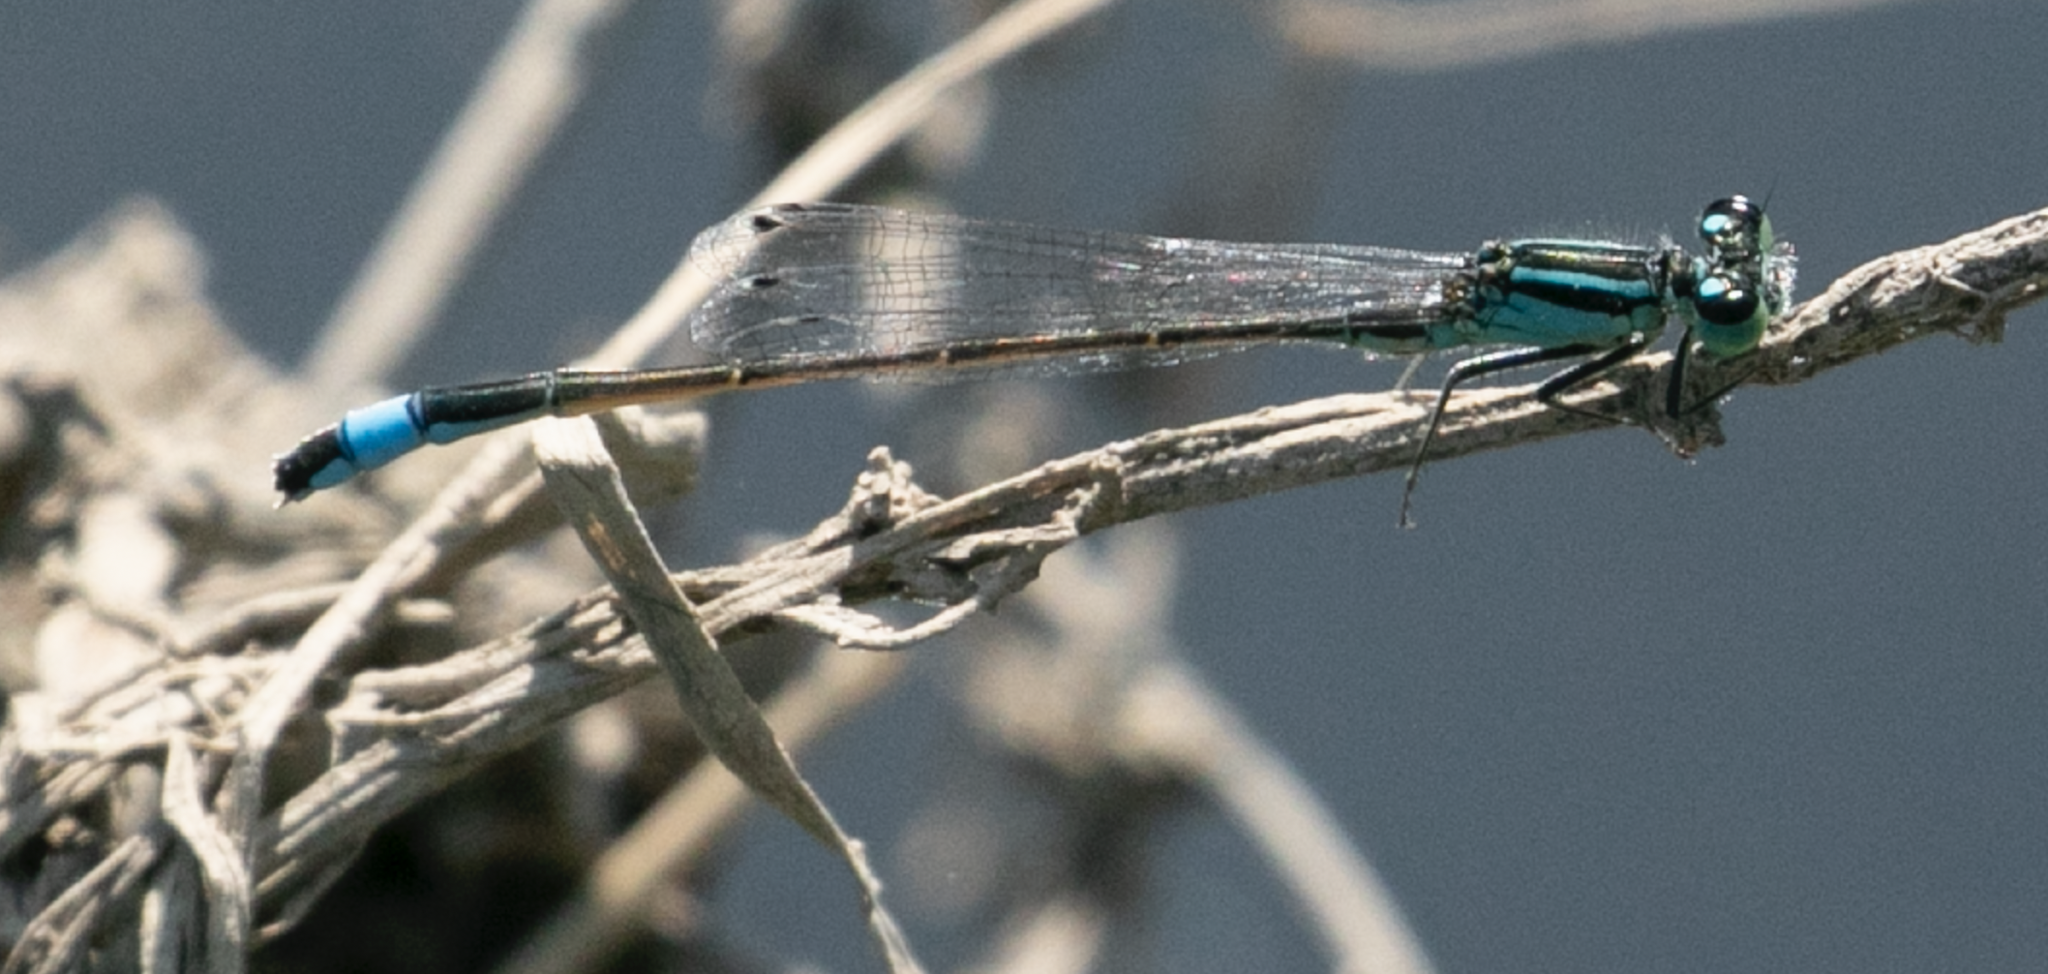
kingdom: Animalia
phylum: Arthropoda
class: Insecta
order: Odonata
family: Coenagrionidae
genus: Ischnura
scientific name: Ischnura elegans
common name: Blue-tailed damselfly
